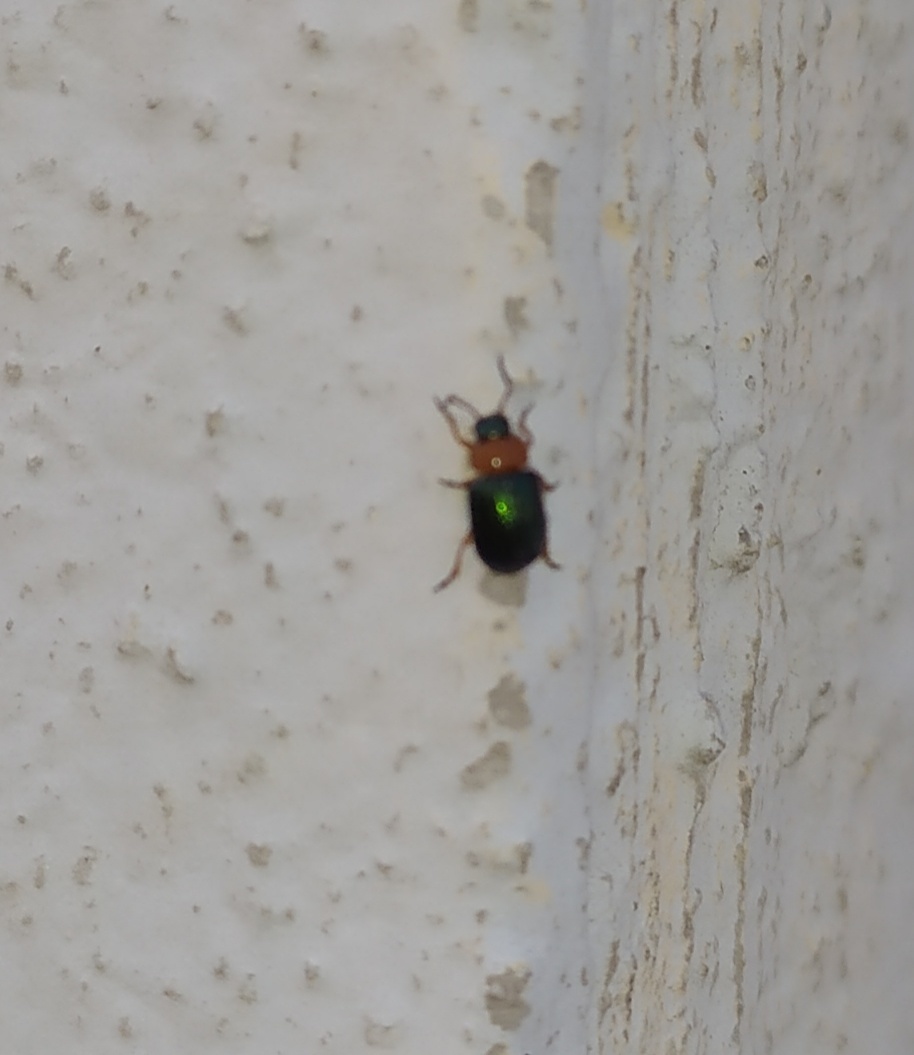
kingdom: Animalia
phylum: Arthropoda
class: Insecta
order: Coleoptera
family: Chrysomelidae
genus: Gastrophysa
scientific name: Gastrophysa polygoni
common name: Knotweed leaf beetle
